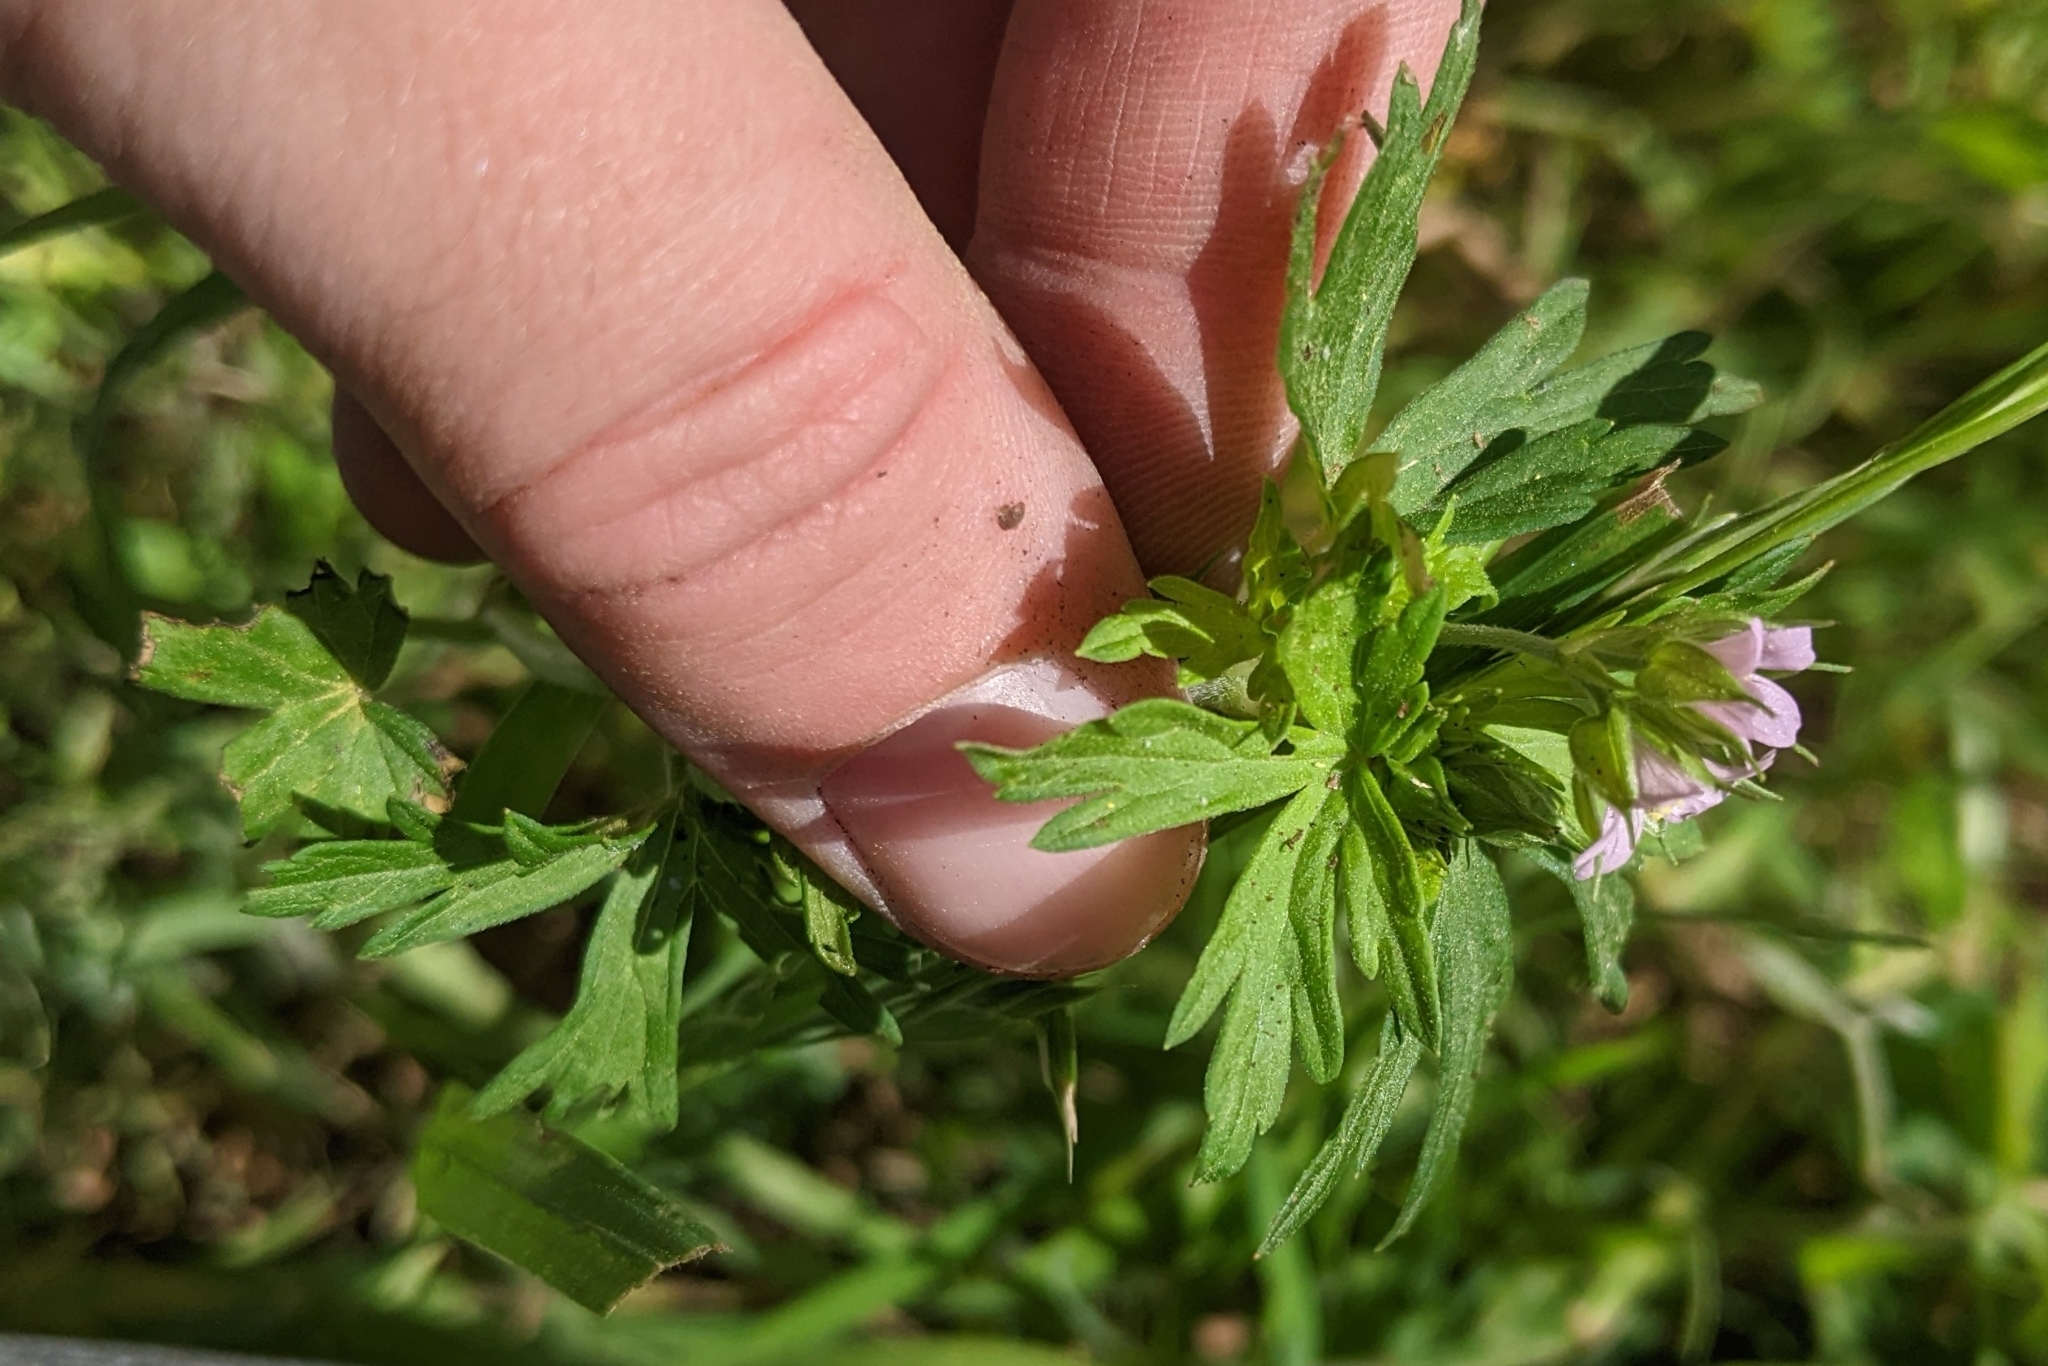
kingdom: Plantae
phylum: Tracheophyta
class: Magnoliopsida
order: Geraniales
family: Geraniaceae
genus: Geranium
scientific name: Geranium carolinianum
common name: Carolina crane's-bill
